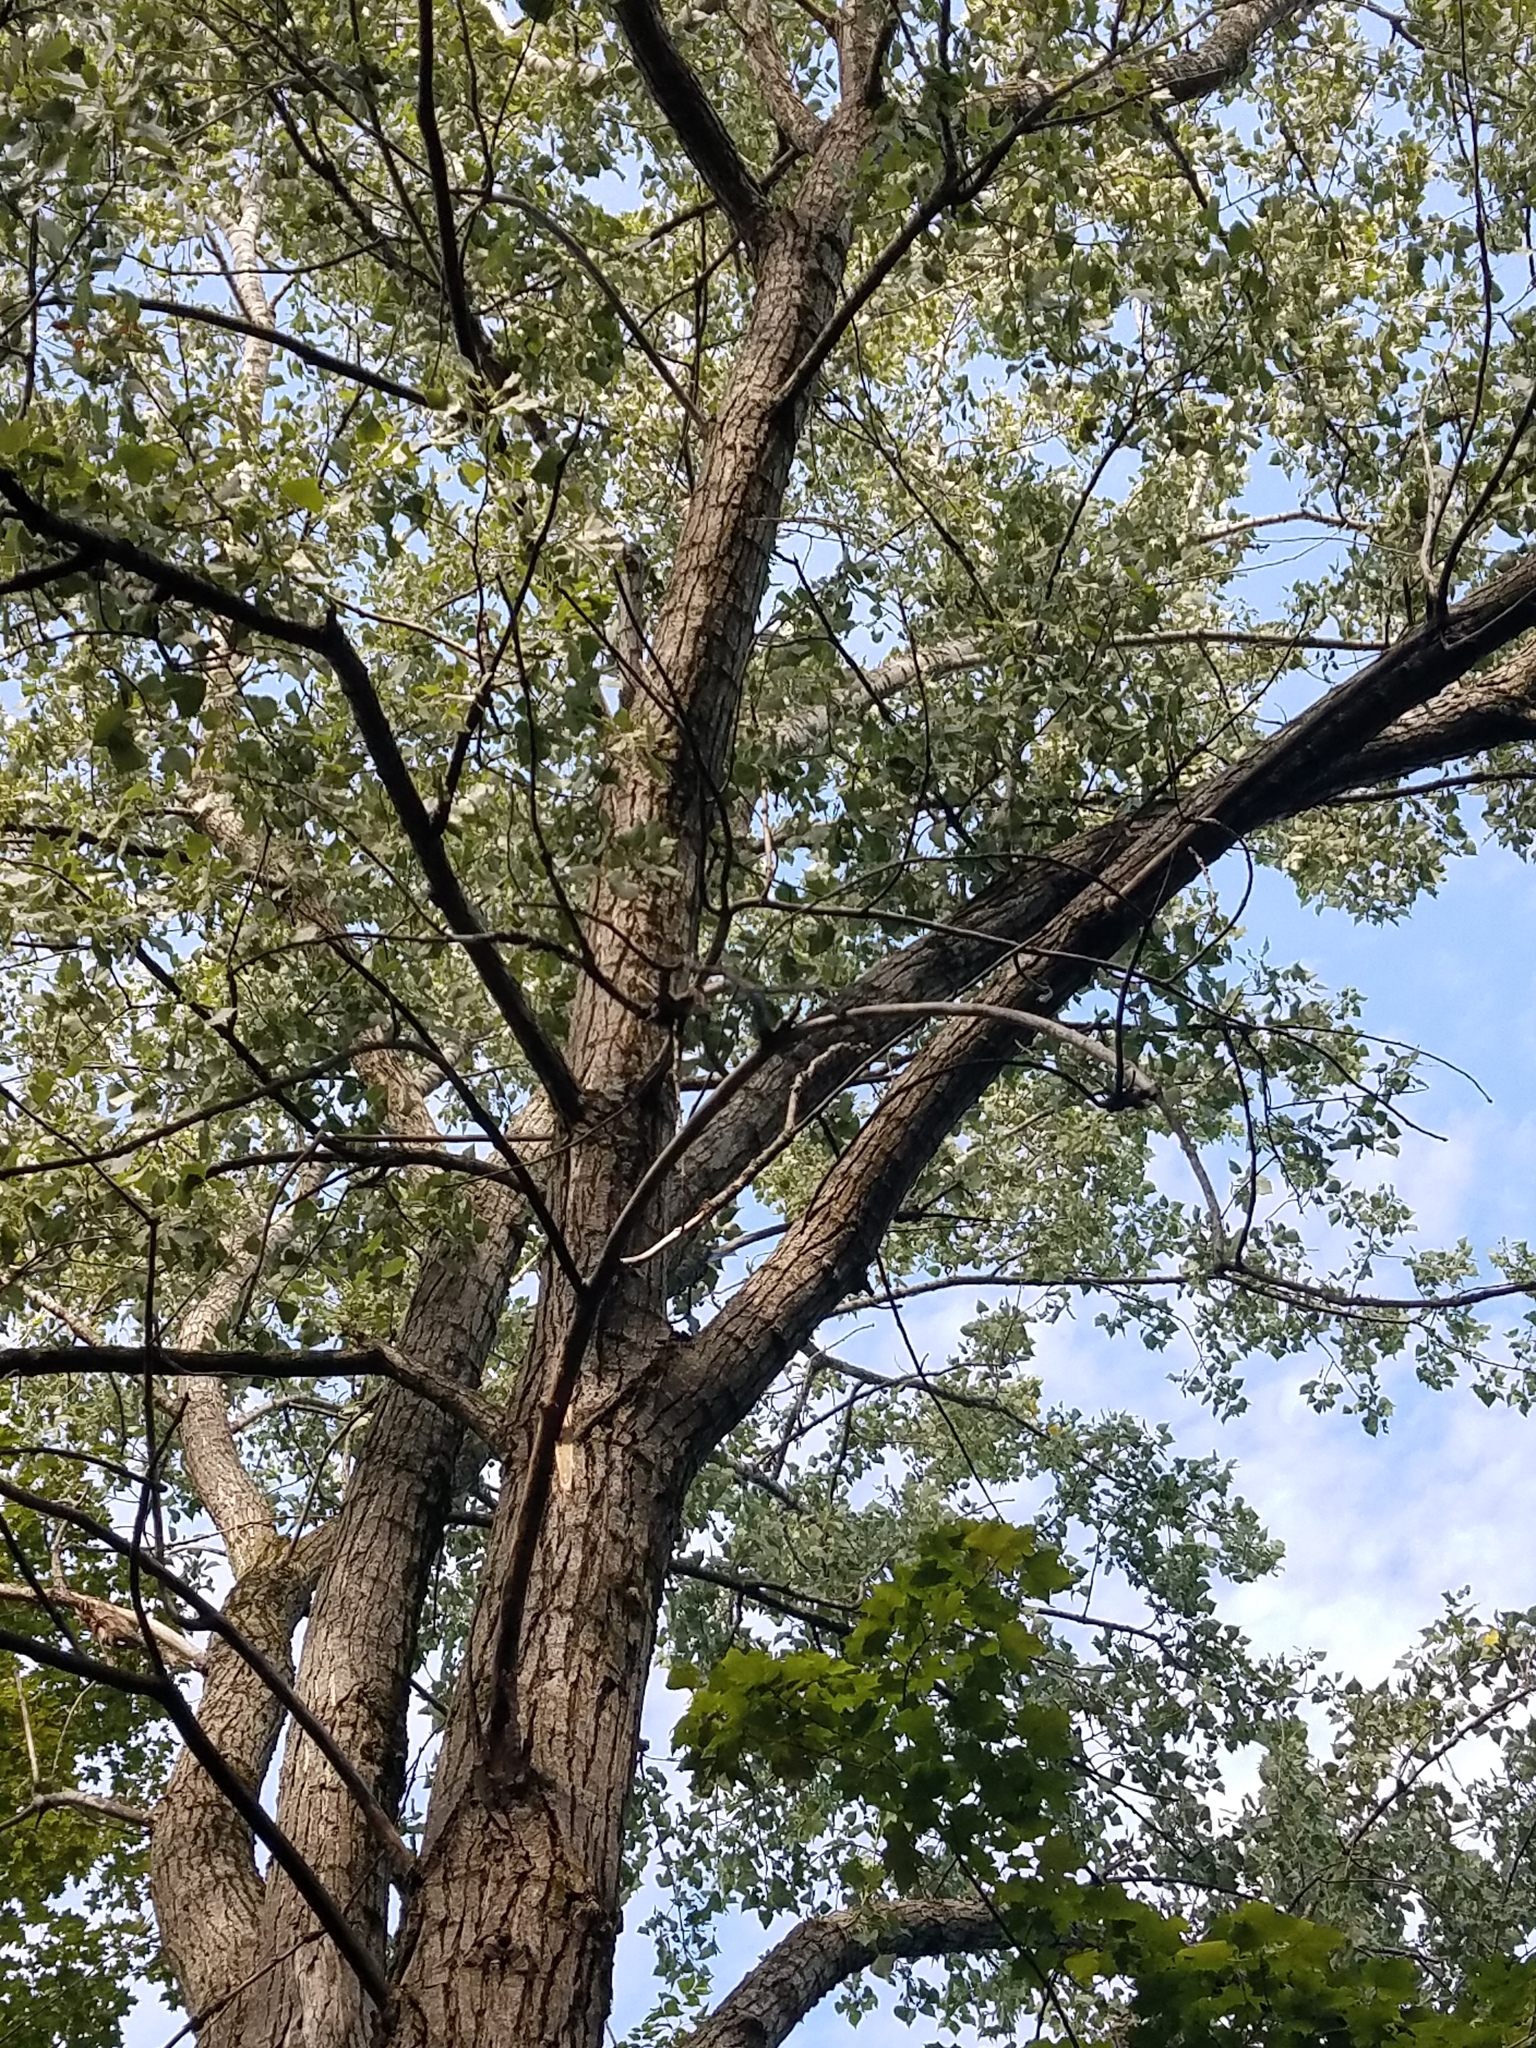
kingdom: Plantae
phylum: Tracheophyta
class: Magnoliopsida
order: Malpighiales
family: Salicaceae
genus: Populus
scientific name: Populus deltoides
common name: Eastern cottonwood
